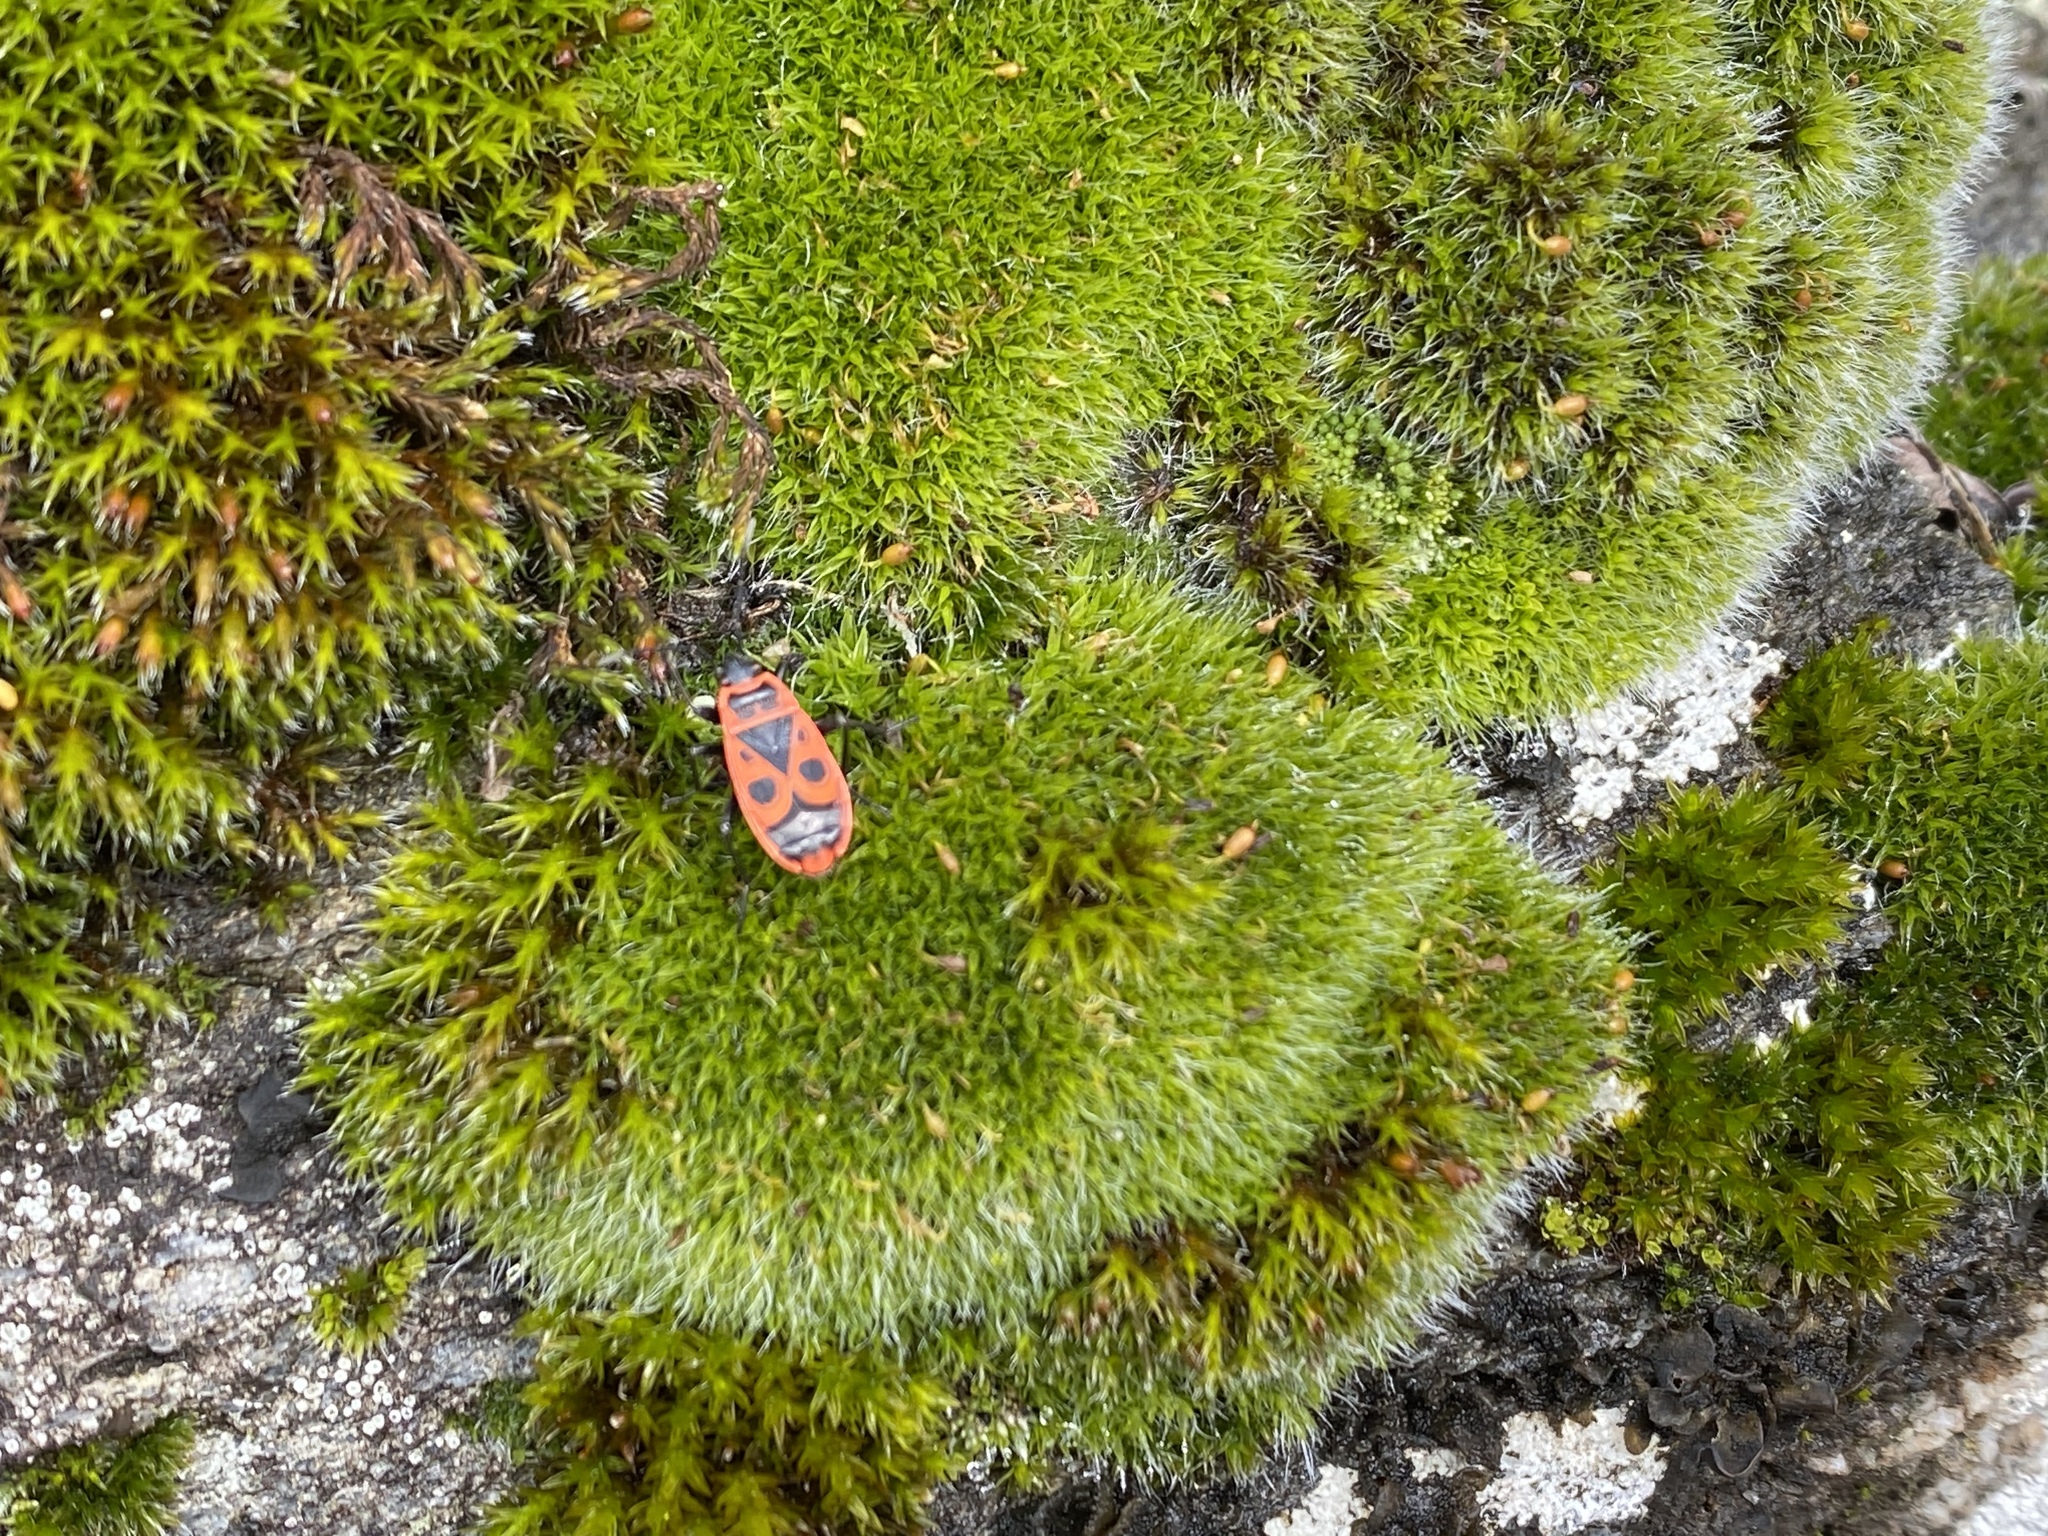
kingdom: Animalia
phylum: Arthropoda
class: Insecta
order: Hemiptera
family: Pyrrhocoridae
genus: Pyrrhocoris
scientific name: Pyrrhocoris apterus
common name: Firebug
